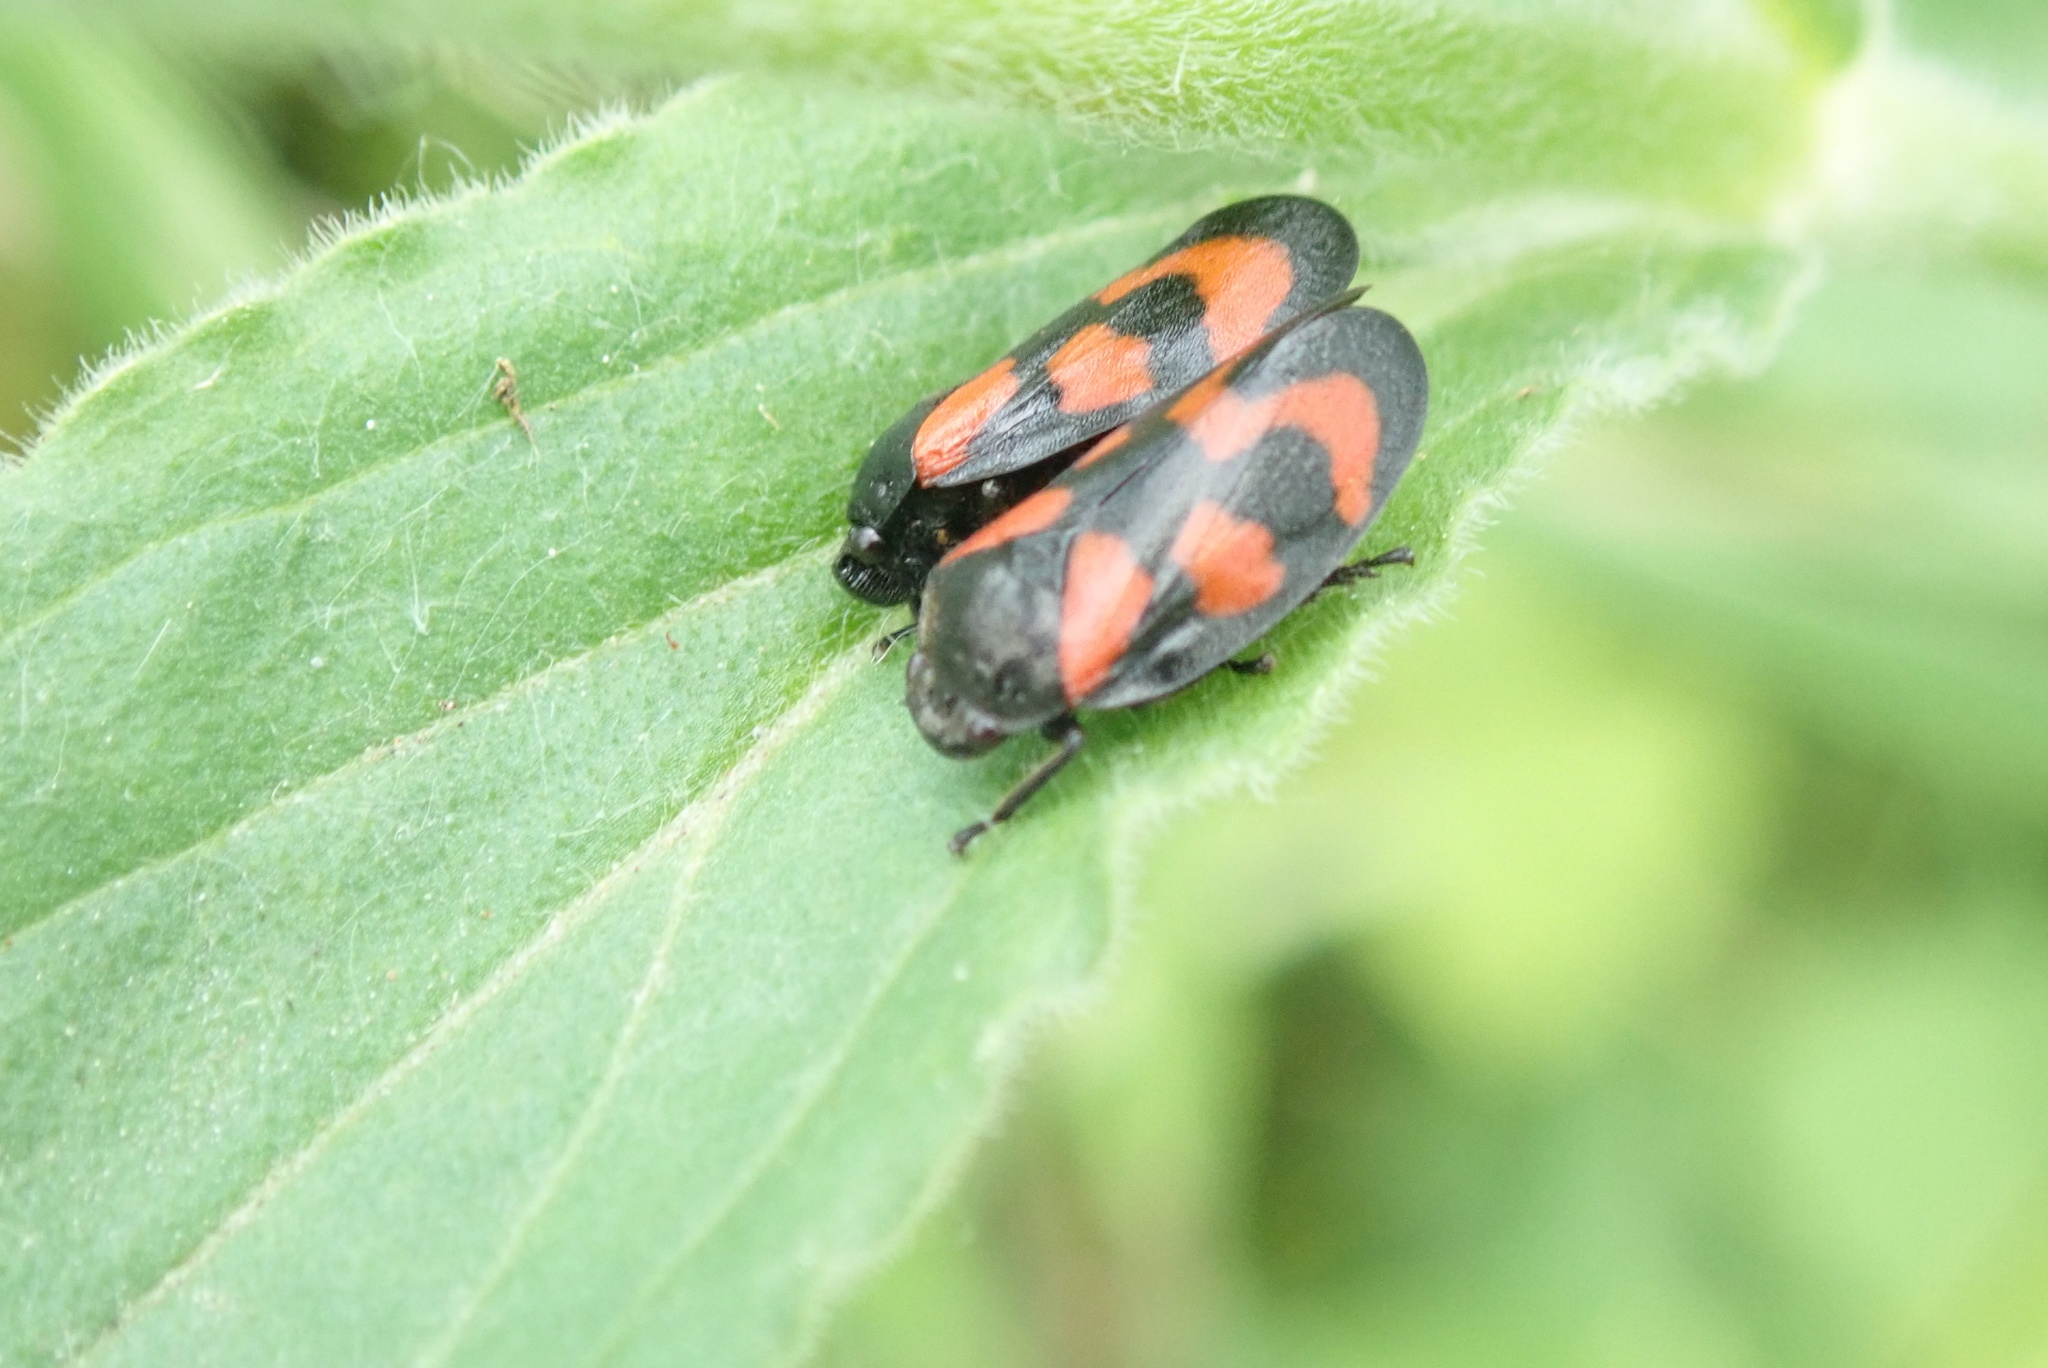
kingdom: Animalia
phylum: Arthropoda
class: Insecta
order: Hemiptera
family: Cercopidae
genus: Cercopis
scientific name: Cercopis vulnerata
